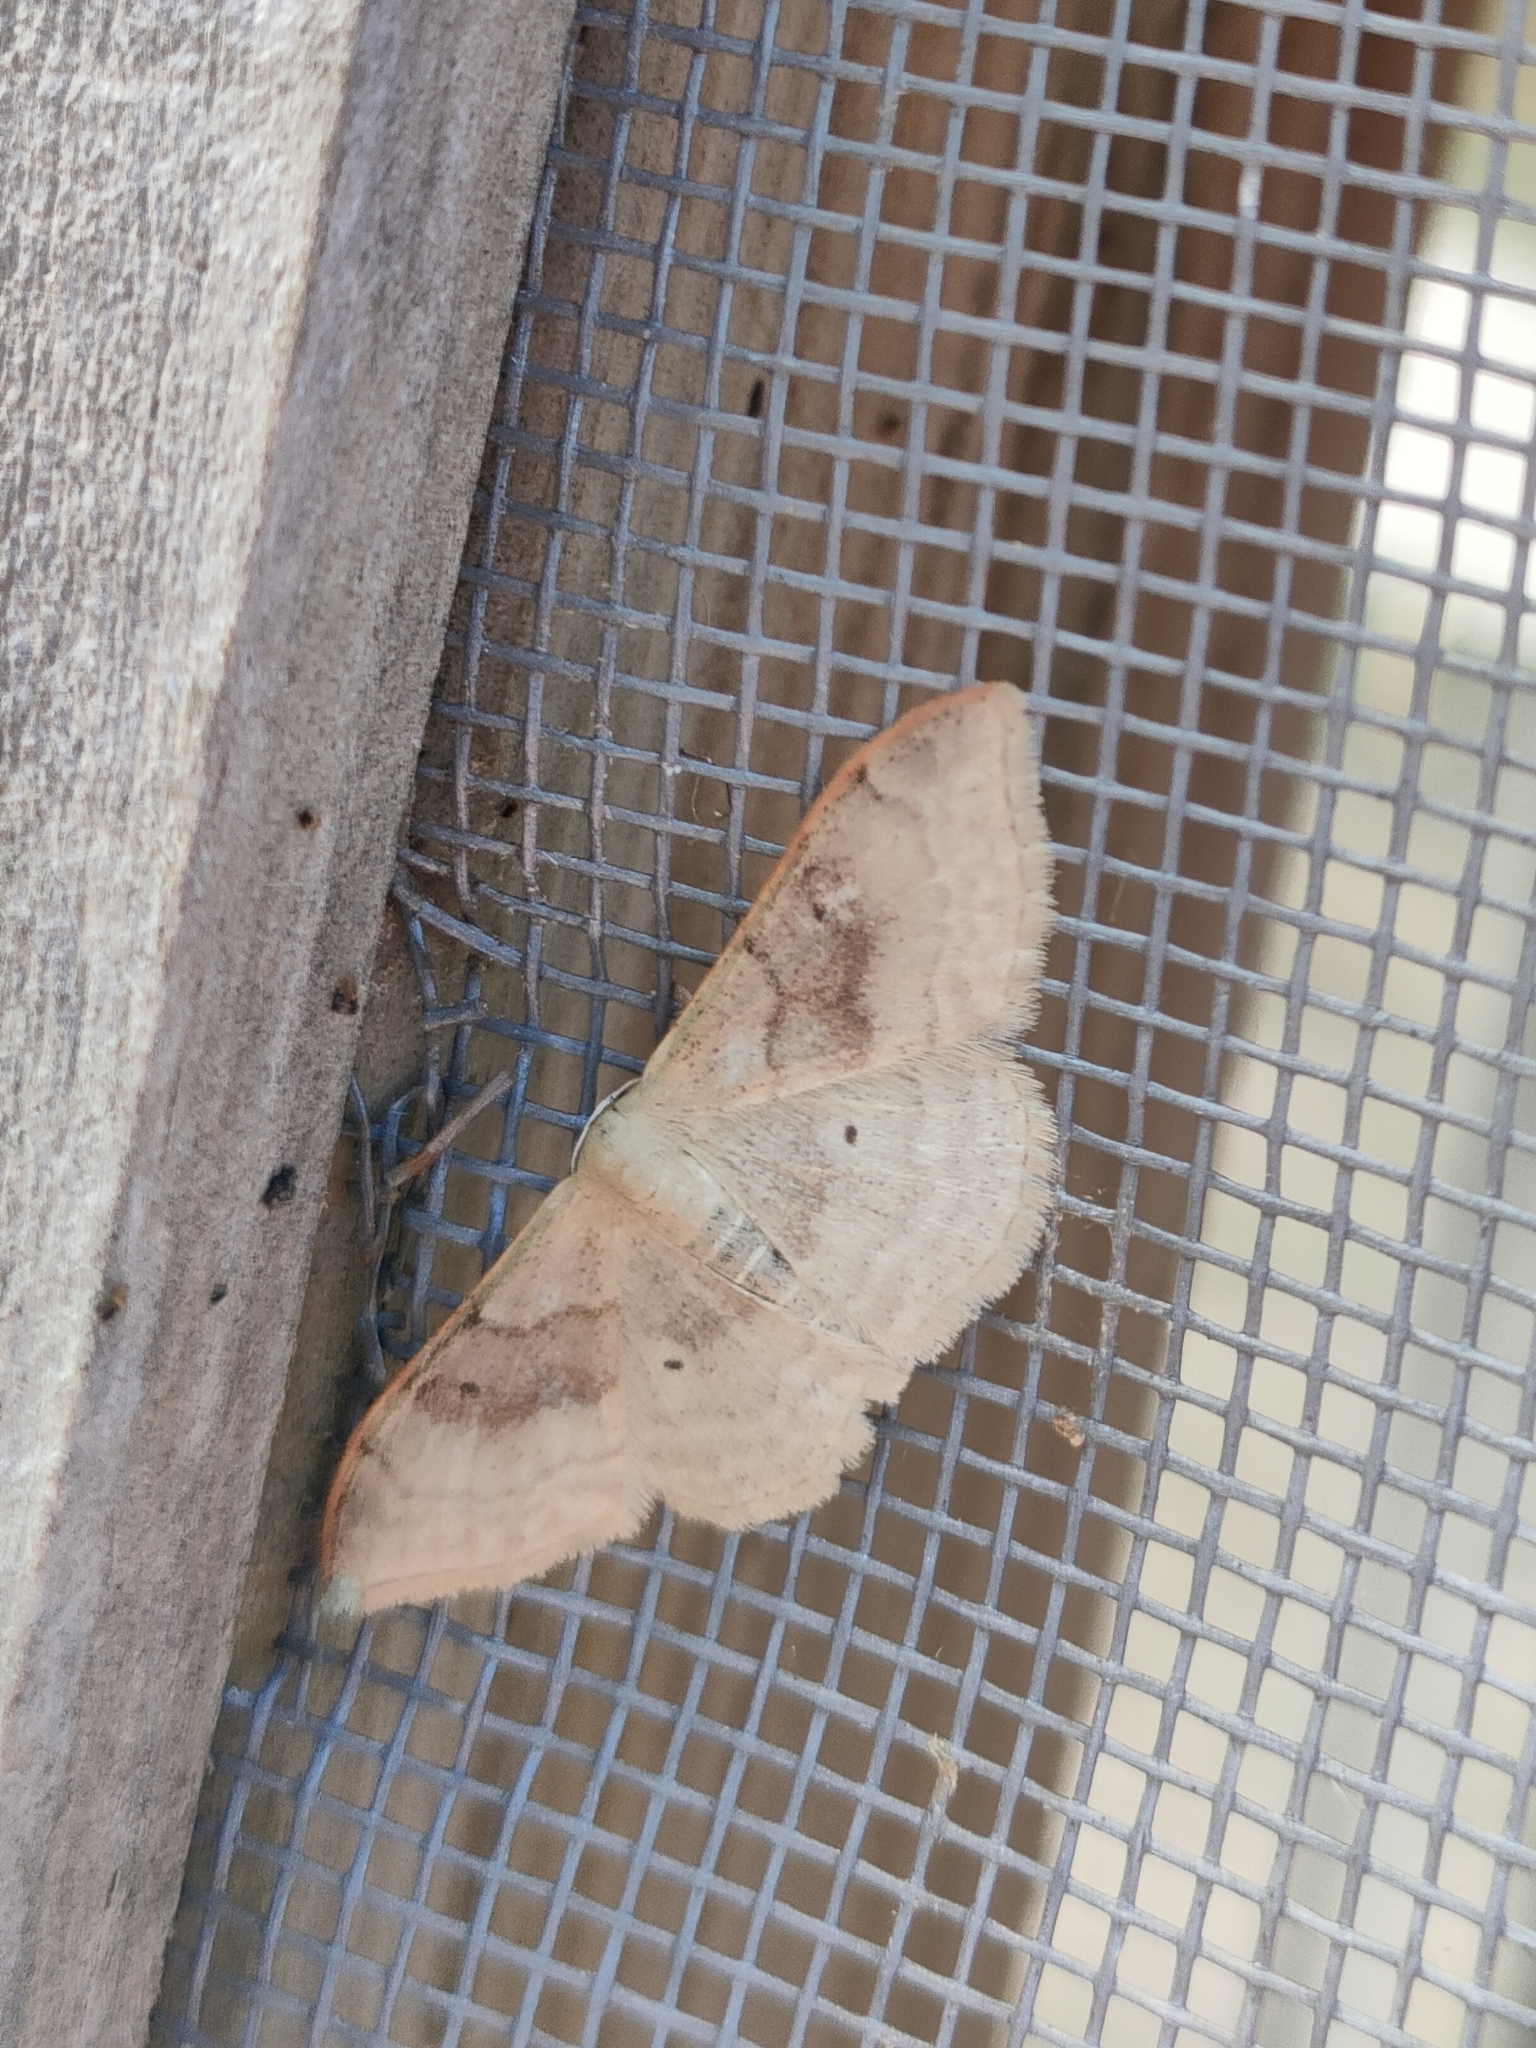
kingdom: Animalia
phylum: Arthropoda
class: Insecta
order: Lepidoptera
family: Geometridae
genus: Idaea
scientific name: Idaea degeneraria
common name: Portland ribbon wave
